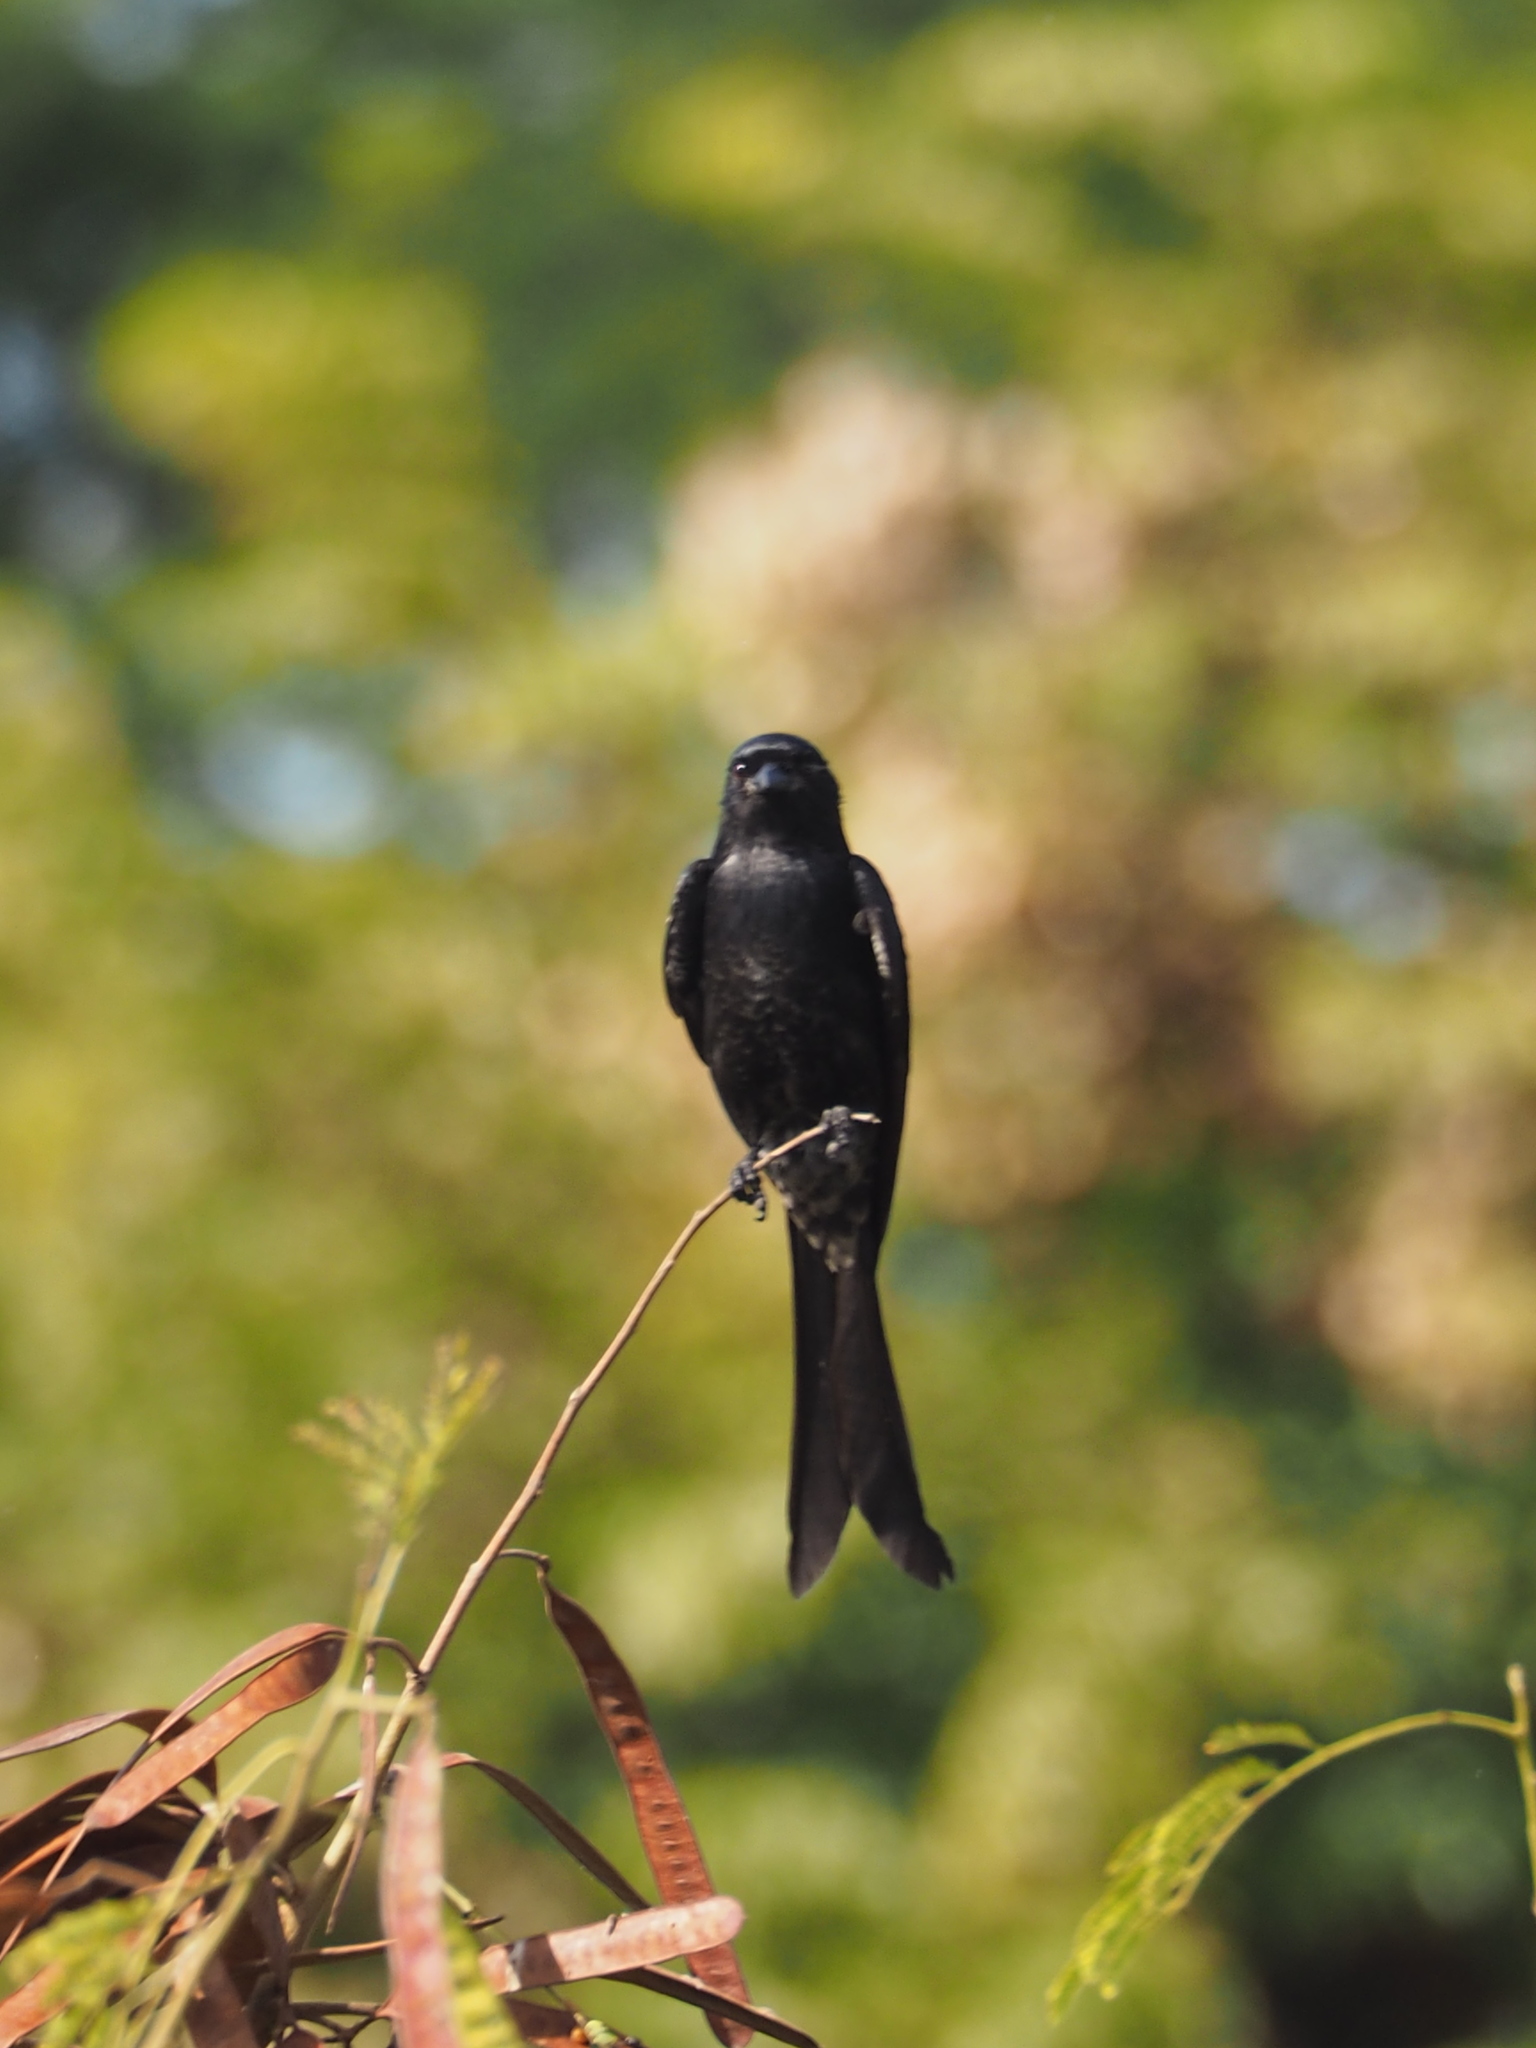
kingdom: Animalia
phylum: Chordata
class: Aves
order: Passeriformes
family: Dicruridae
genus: Dicrurus
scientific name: Dicrurus macrocercus
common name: Black drongo
